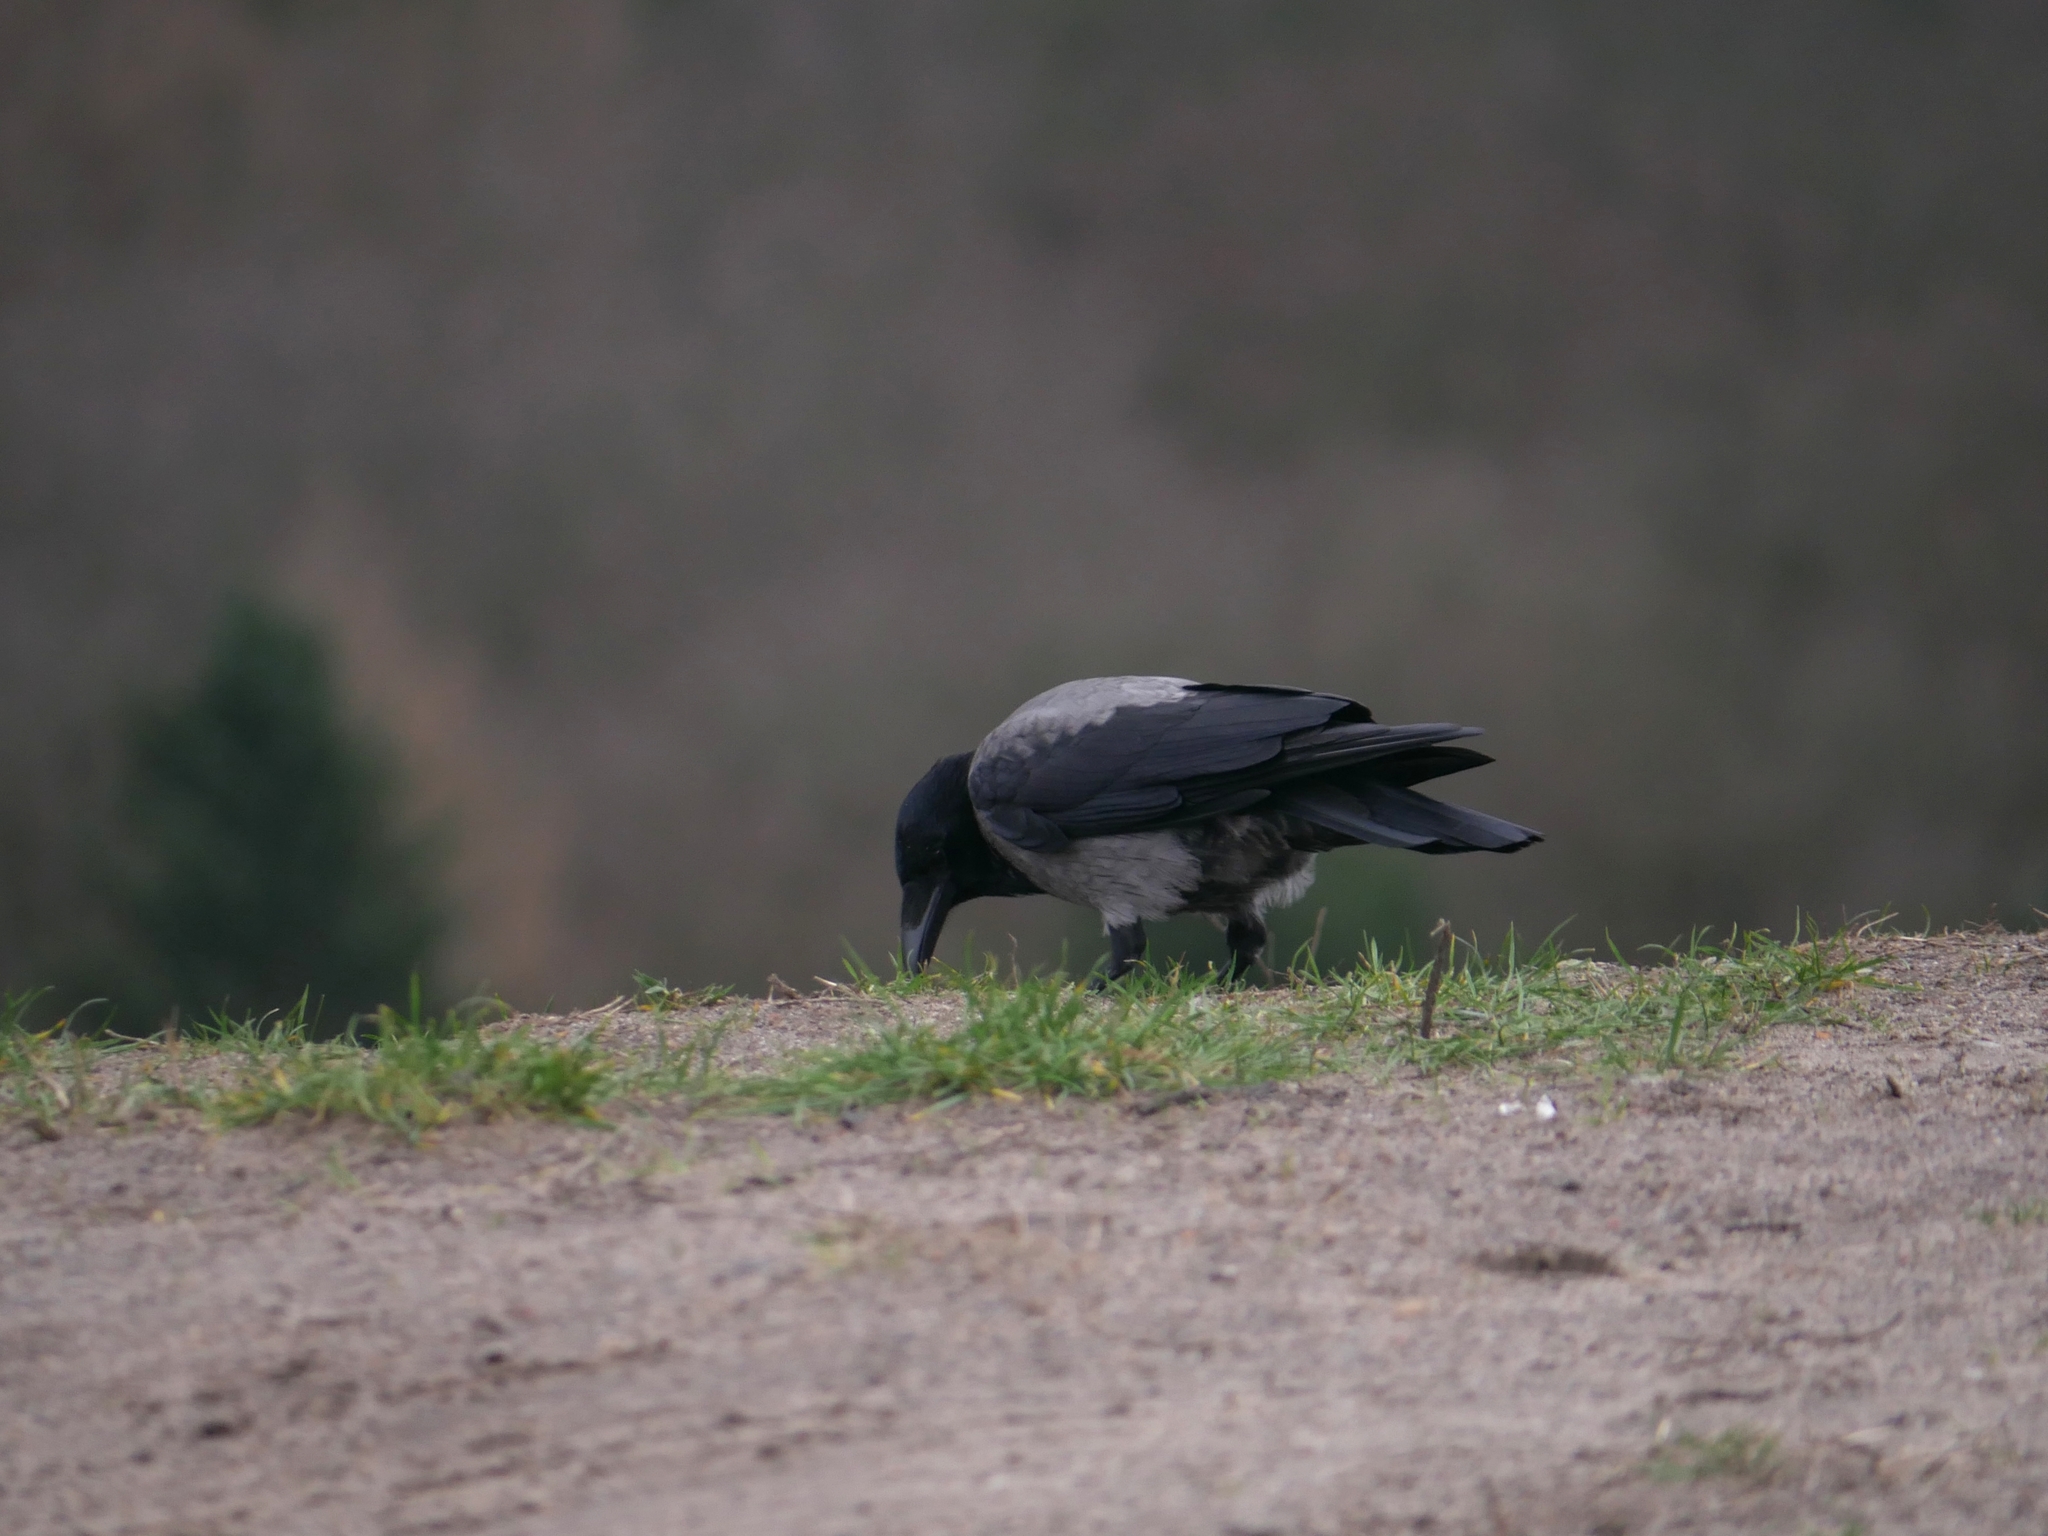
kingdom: Animalia
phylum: Chordata
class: Aves
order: Passeriformes
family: Corvidae
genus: Corvus
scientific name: Corvus cornix
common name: Hooded crow
